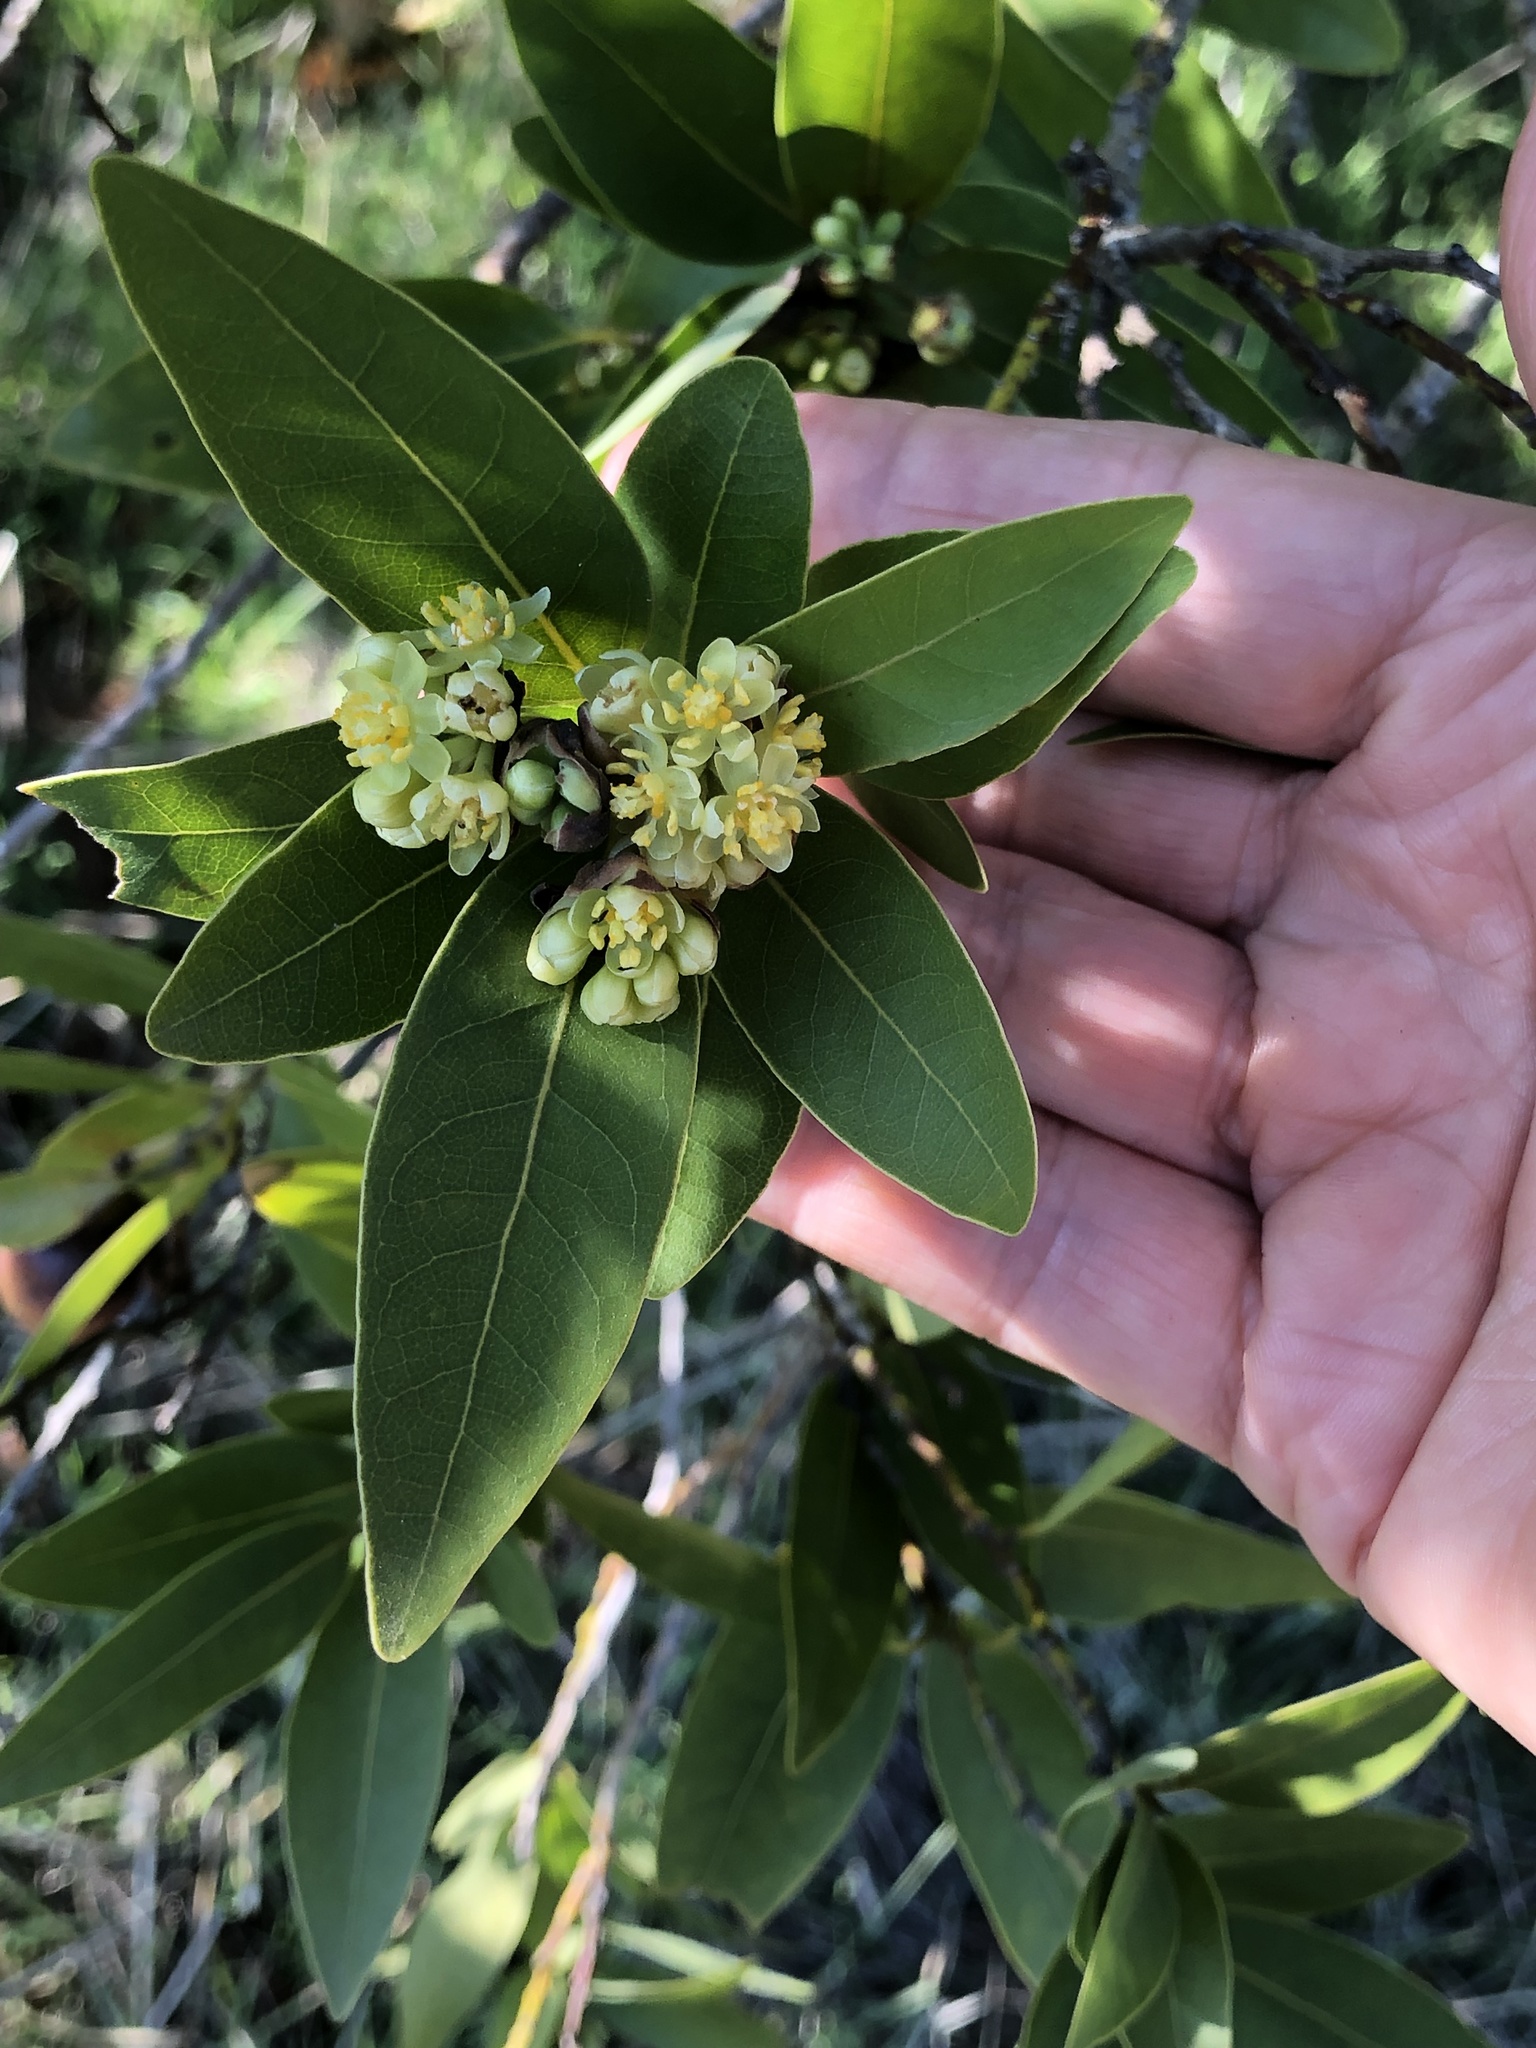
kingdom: Plantae
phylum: Tracheophyta
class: Magnoliopsida
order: Laurales
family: Lauraceae
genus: Umbellularia
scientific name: Umbellularia californica
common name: California bay
